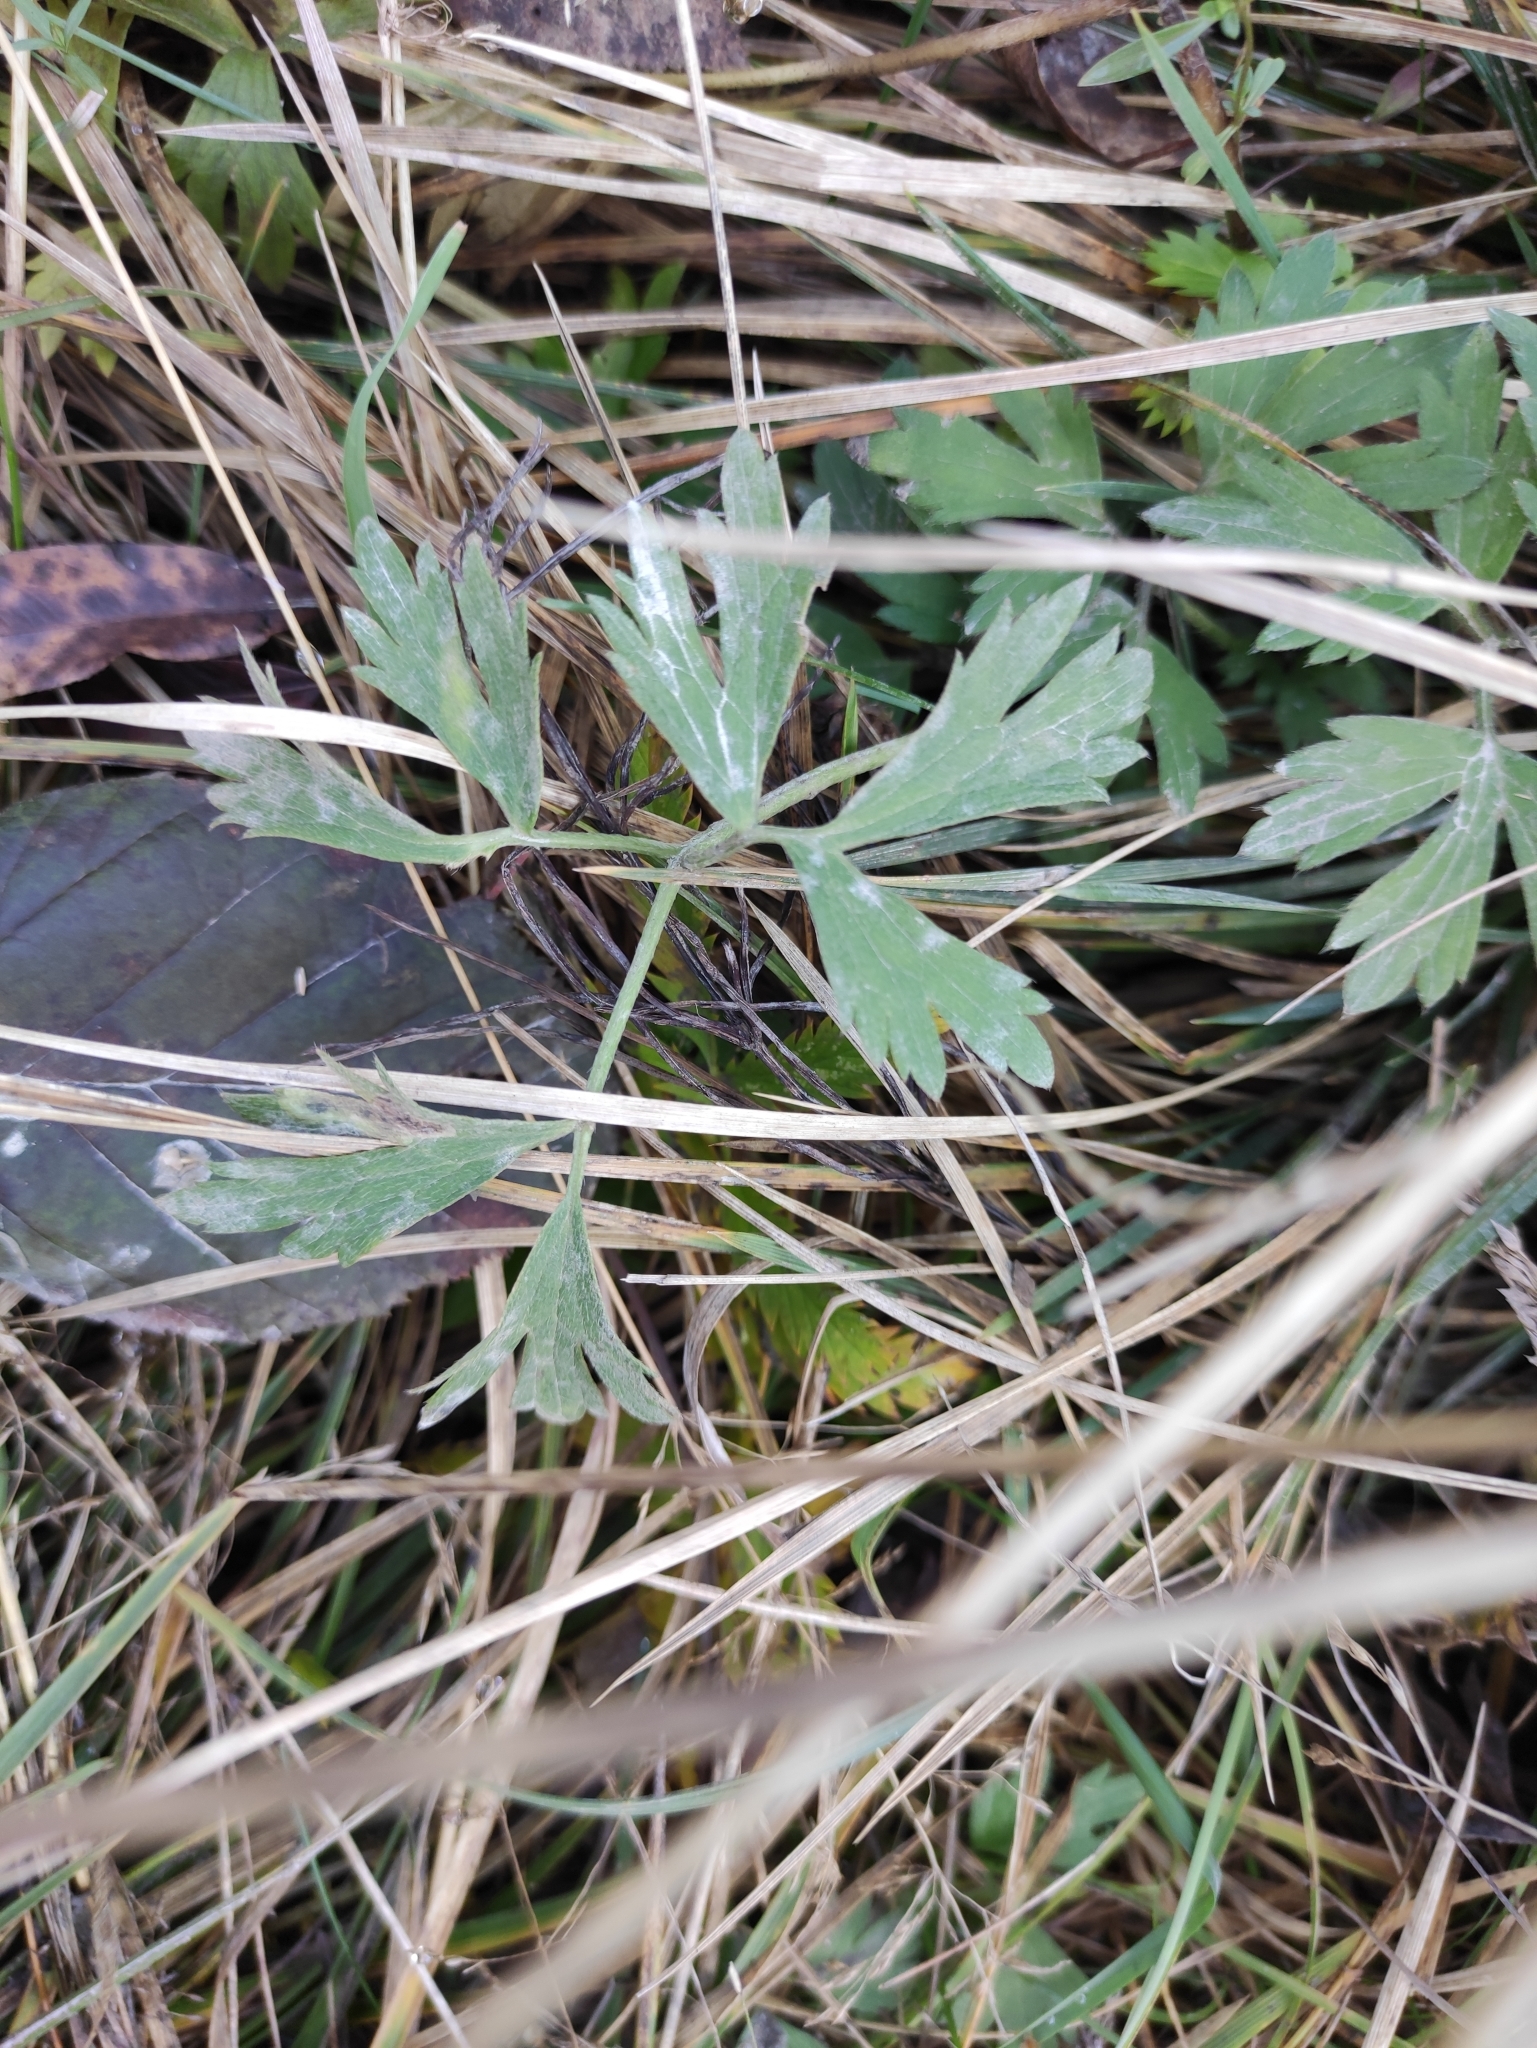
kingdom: Plantae
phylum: Tracheophyta
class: Magnoliopsida
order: Ranunculales
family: Ranunculaceae
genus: Ranunculus
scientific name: Ranunculus repens
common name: Creeping buttercup
